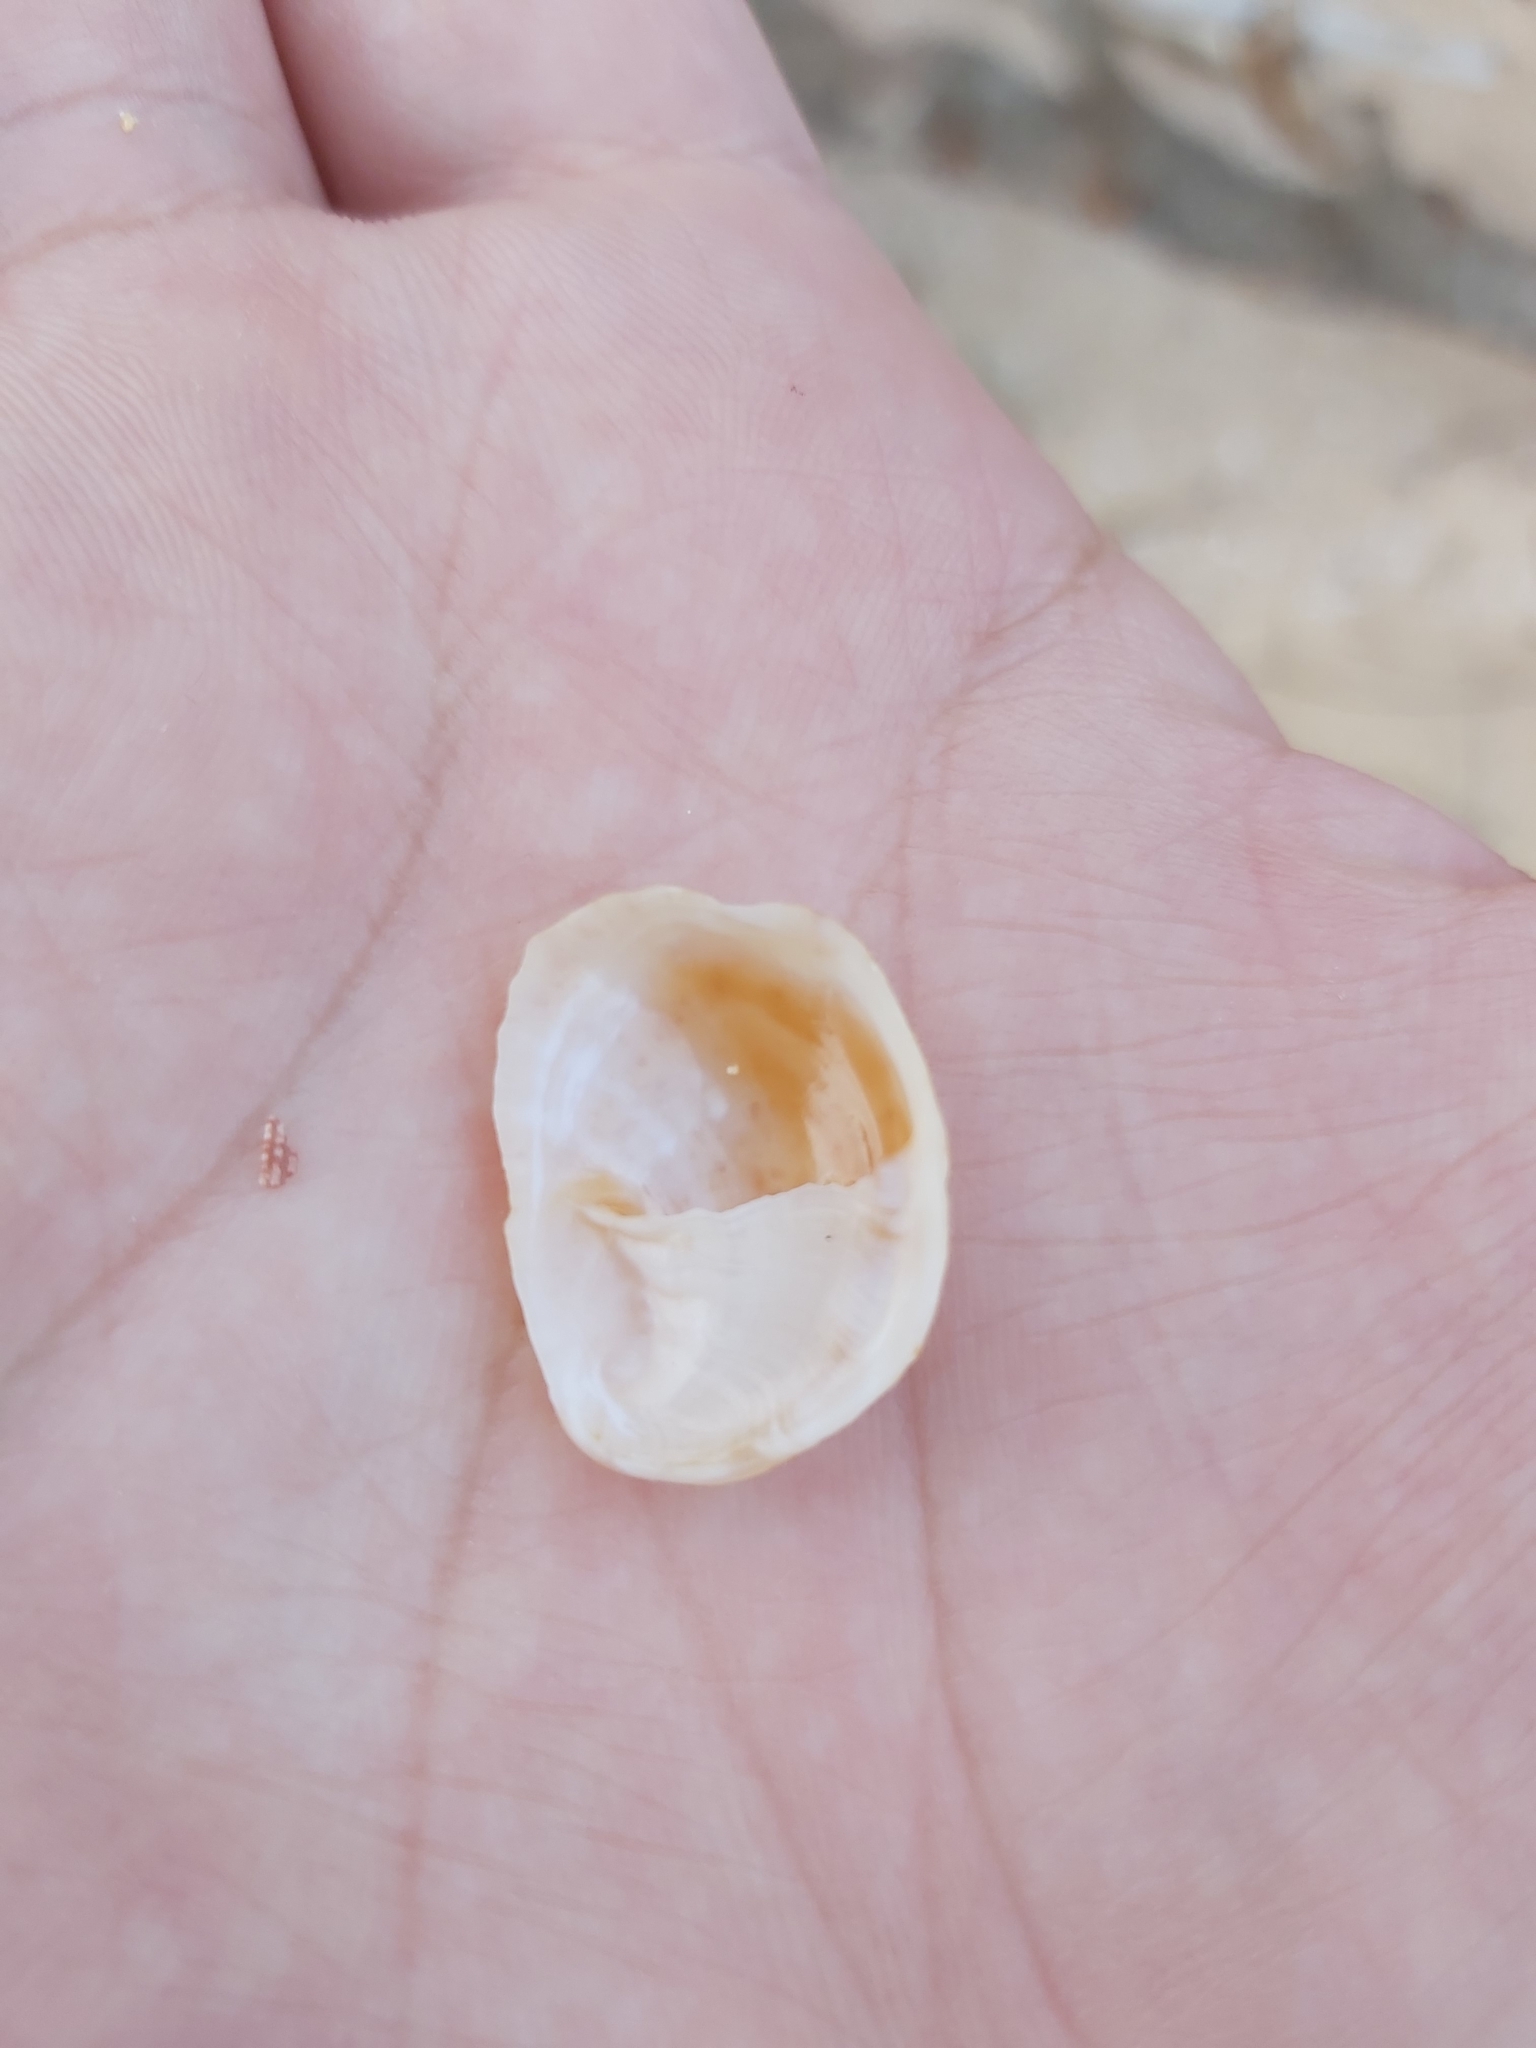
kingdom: Animalia
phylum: Mollusca
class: Gastropoda
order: Littorinimorpha
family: Calyptraeidae
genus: Bostrycapulus
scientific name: Bostrycapulus pritzkeri
